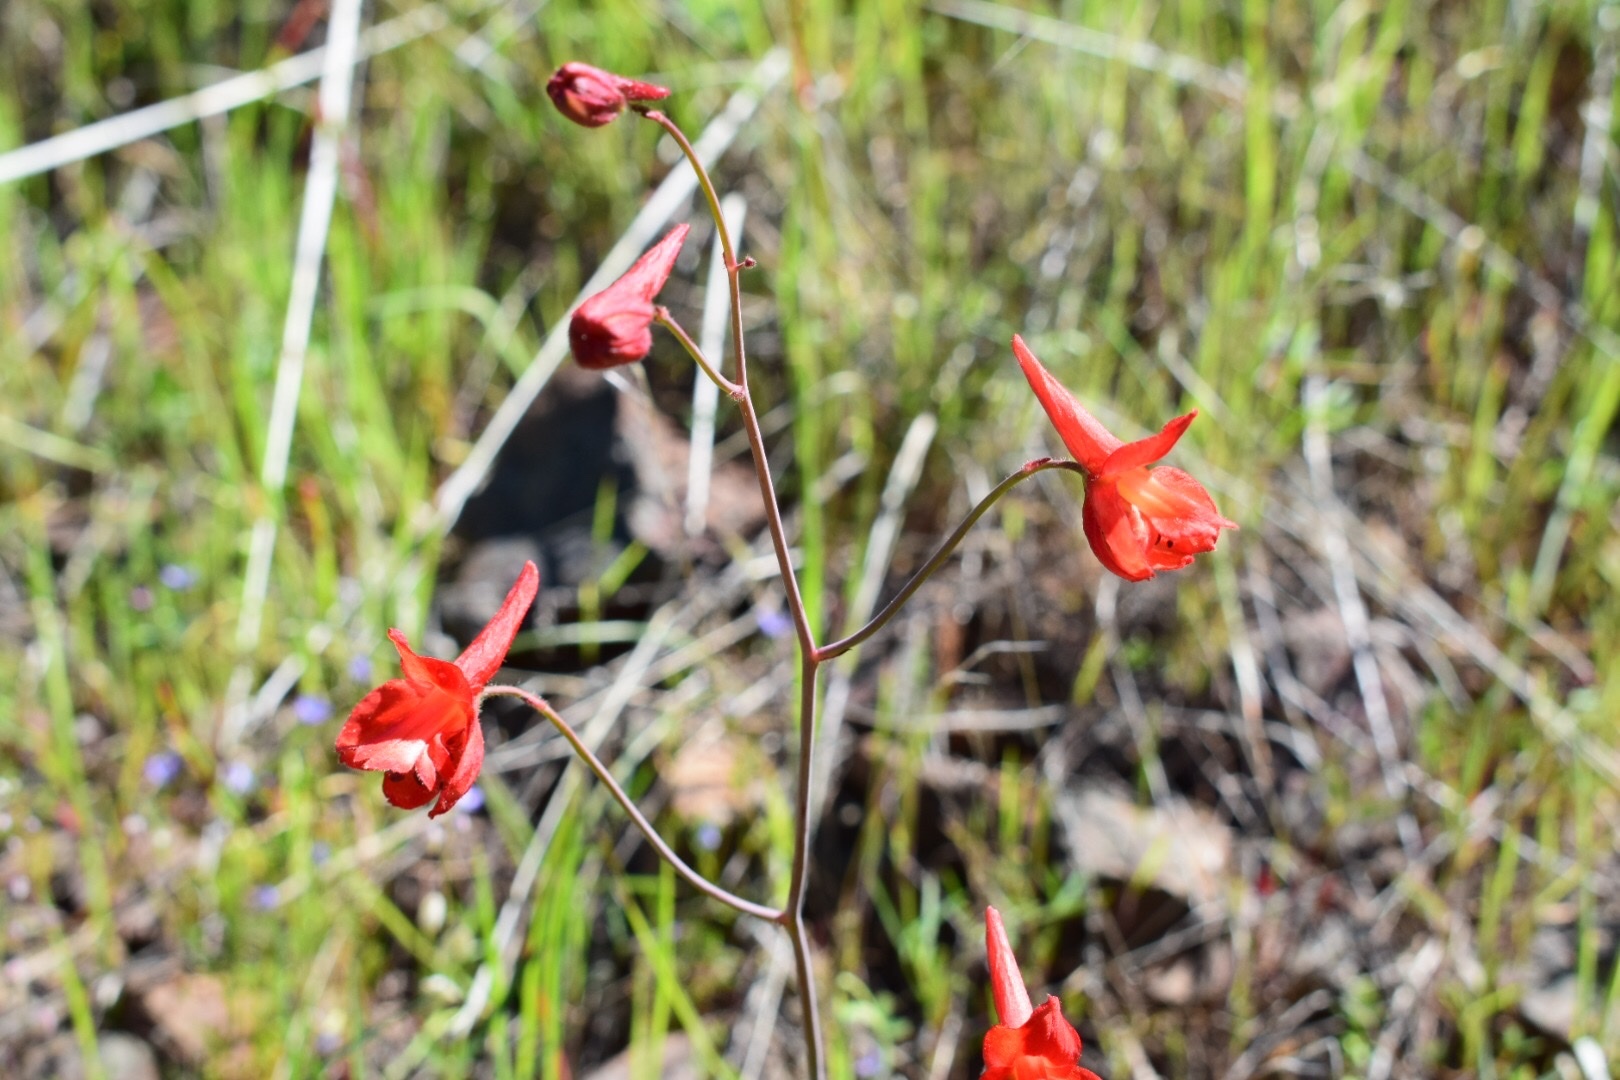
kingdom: Plantae
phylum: Tracheophyta
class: Magnoliopsida
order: Ranunculales
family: Ranunculaceae
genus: Delphinium
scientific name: Delphinium nudicaule
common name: Red larkspur
